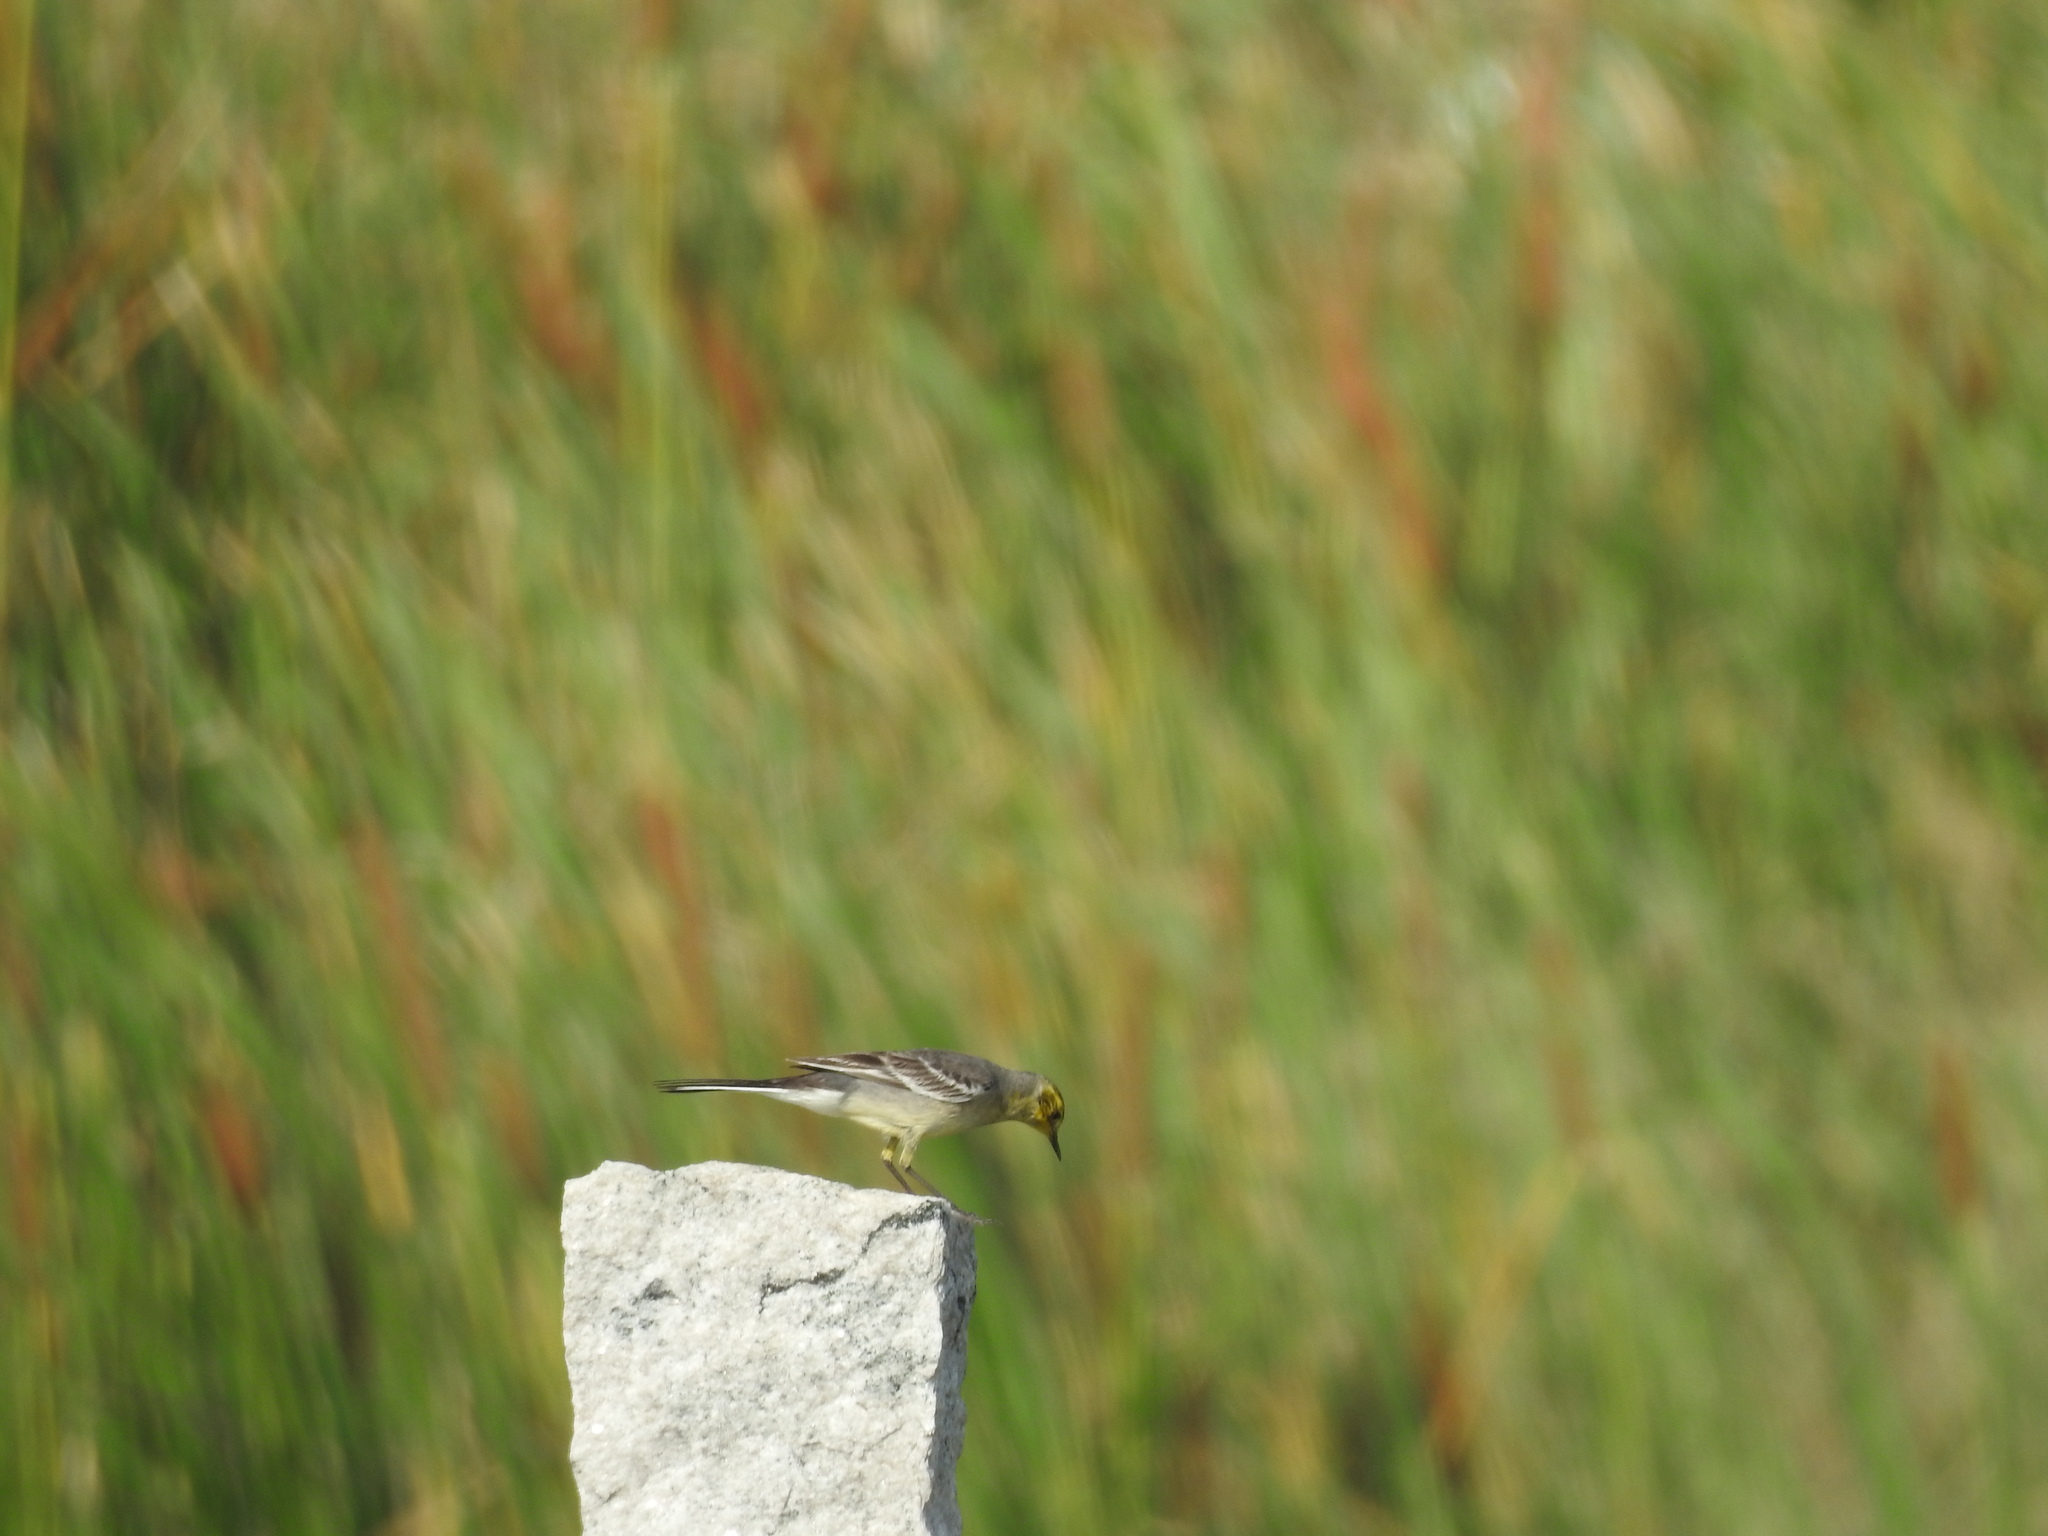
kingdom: Animalia
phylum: Chordata
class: Aves
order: Passeriformes
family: Motacillidae
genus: Motacilla
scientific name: Motacilla citreola
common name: Citrine wagtail
